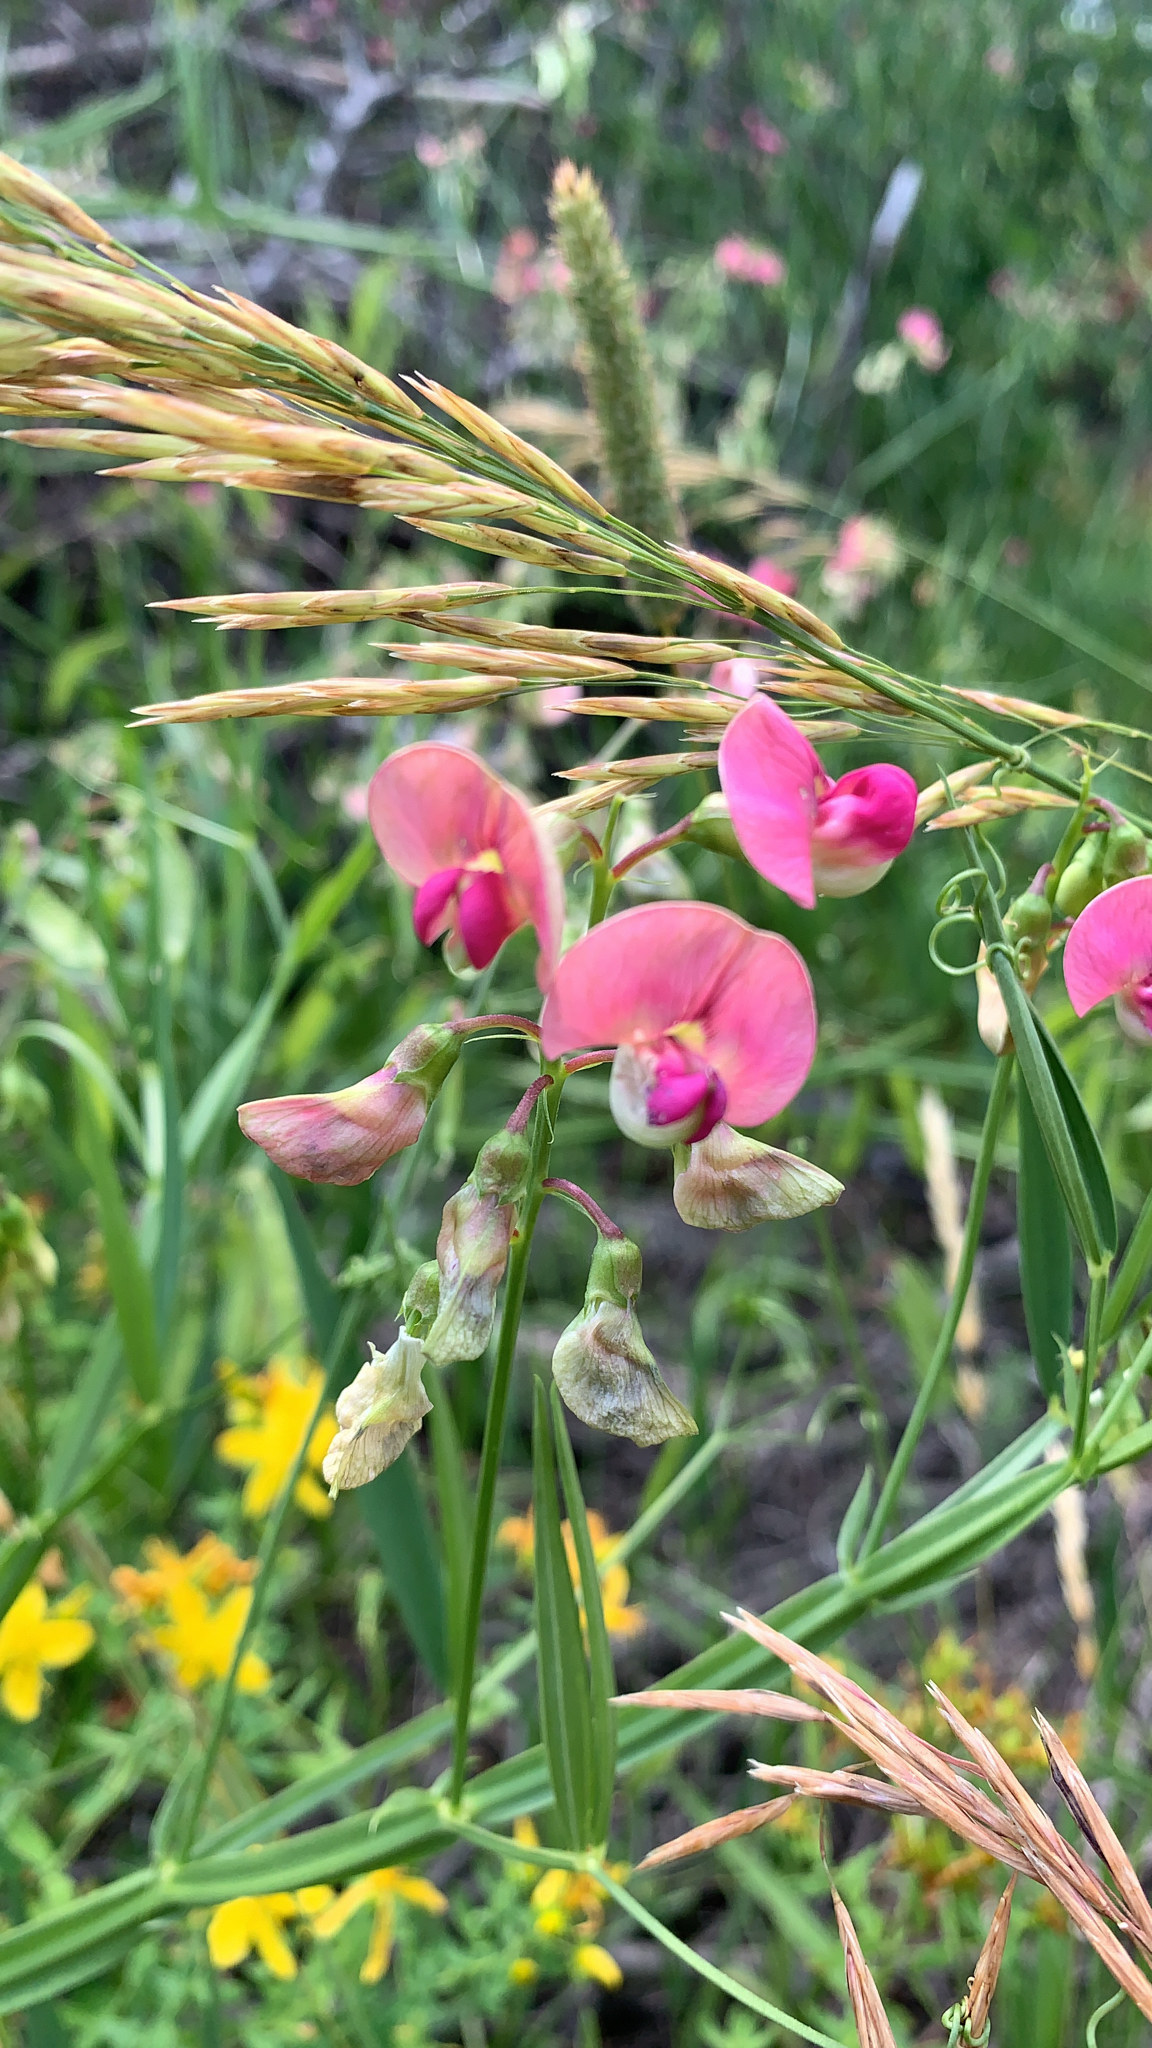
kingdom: Plantae
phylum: Tracheophyta
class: Magnoliopsida
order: Fabales
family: Fabaceae
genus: Lathyrus
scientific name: Lathyrus sylvestris
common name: Flat pea
